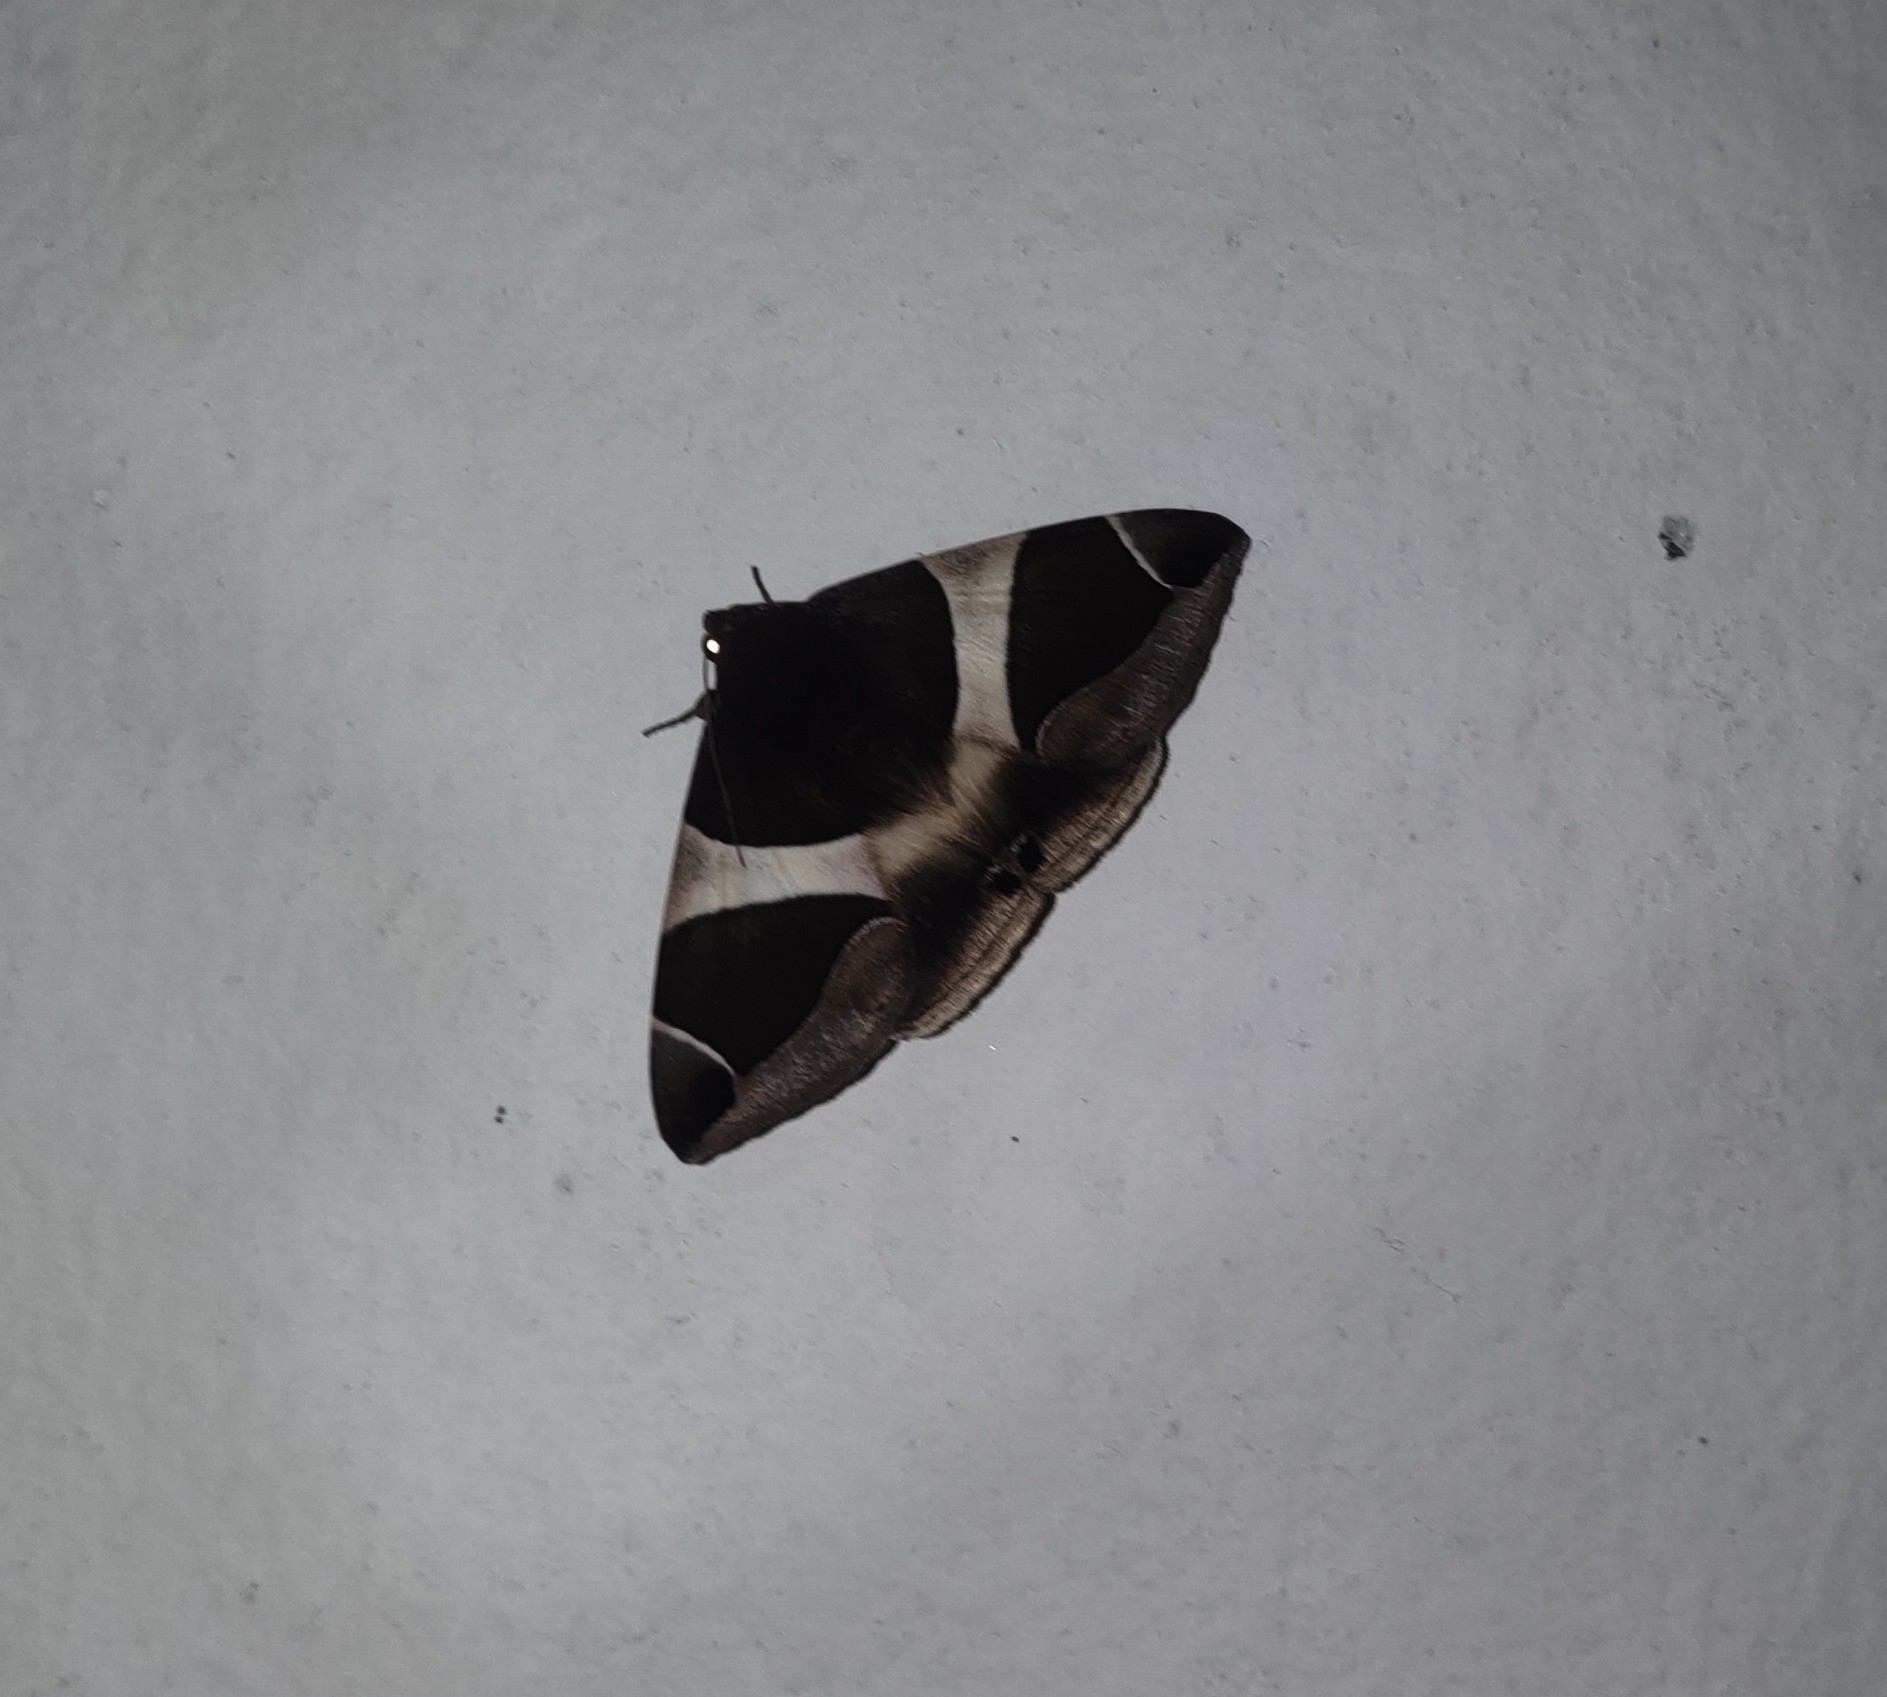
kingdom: Animalia
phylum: Arthropoda
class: Insecta
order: Lepidoptera
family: Erebidae
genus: Bastilla
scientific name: Bastilla crameri
